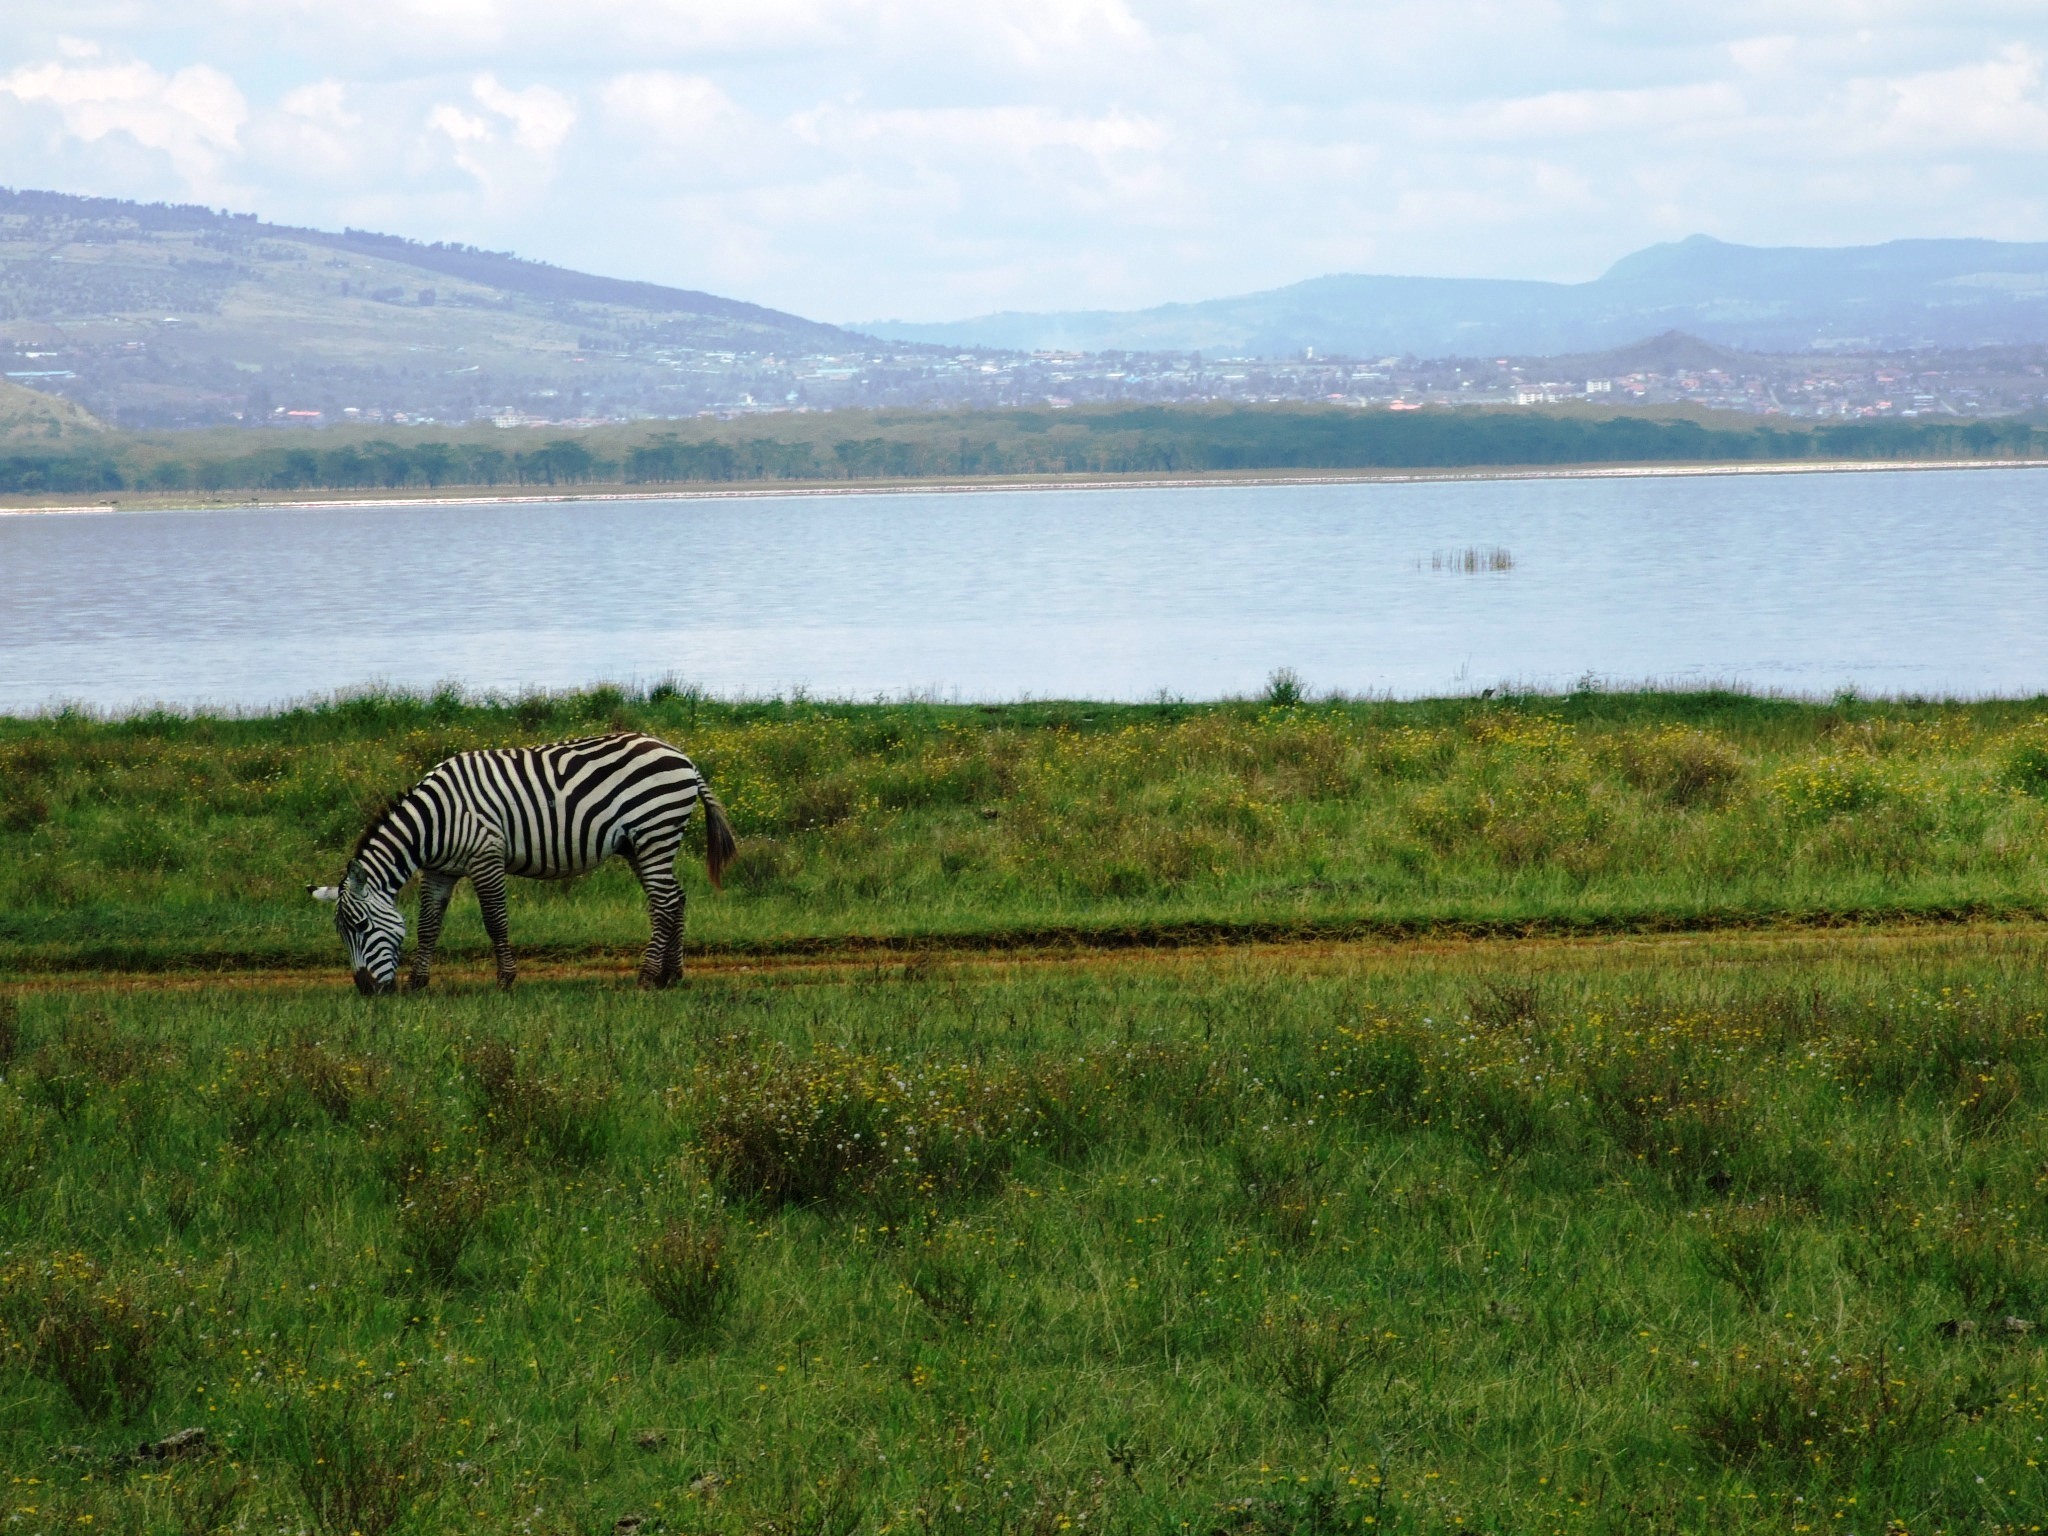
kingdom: Animalia
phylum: Chordata
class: Mammalia
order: Perissodactyla
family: Equidae
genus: Equus
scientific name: Equus quagga
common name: Plains zebra
